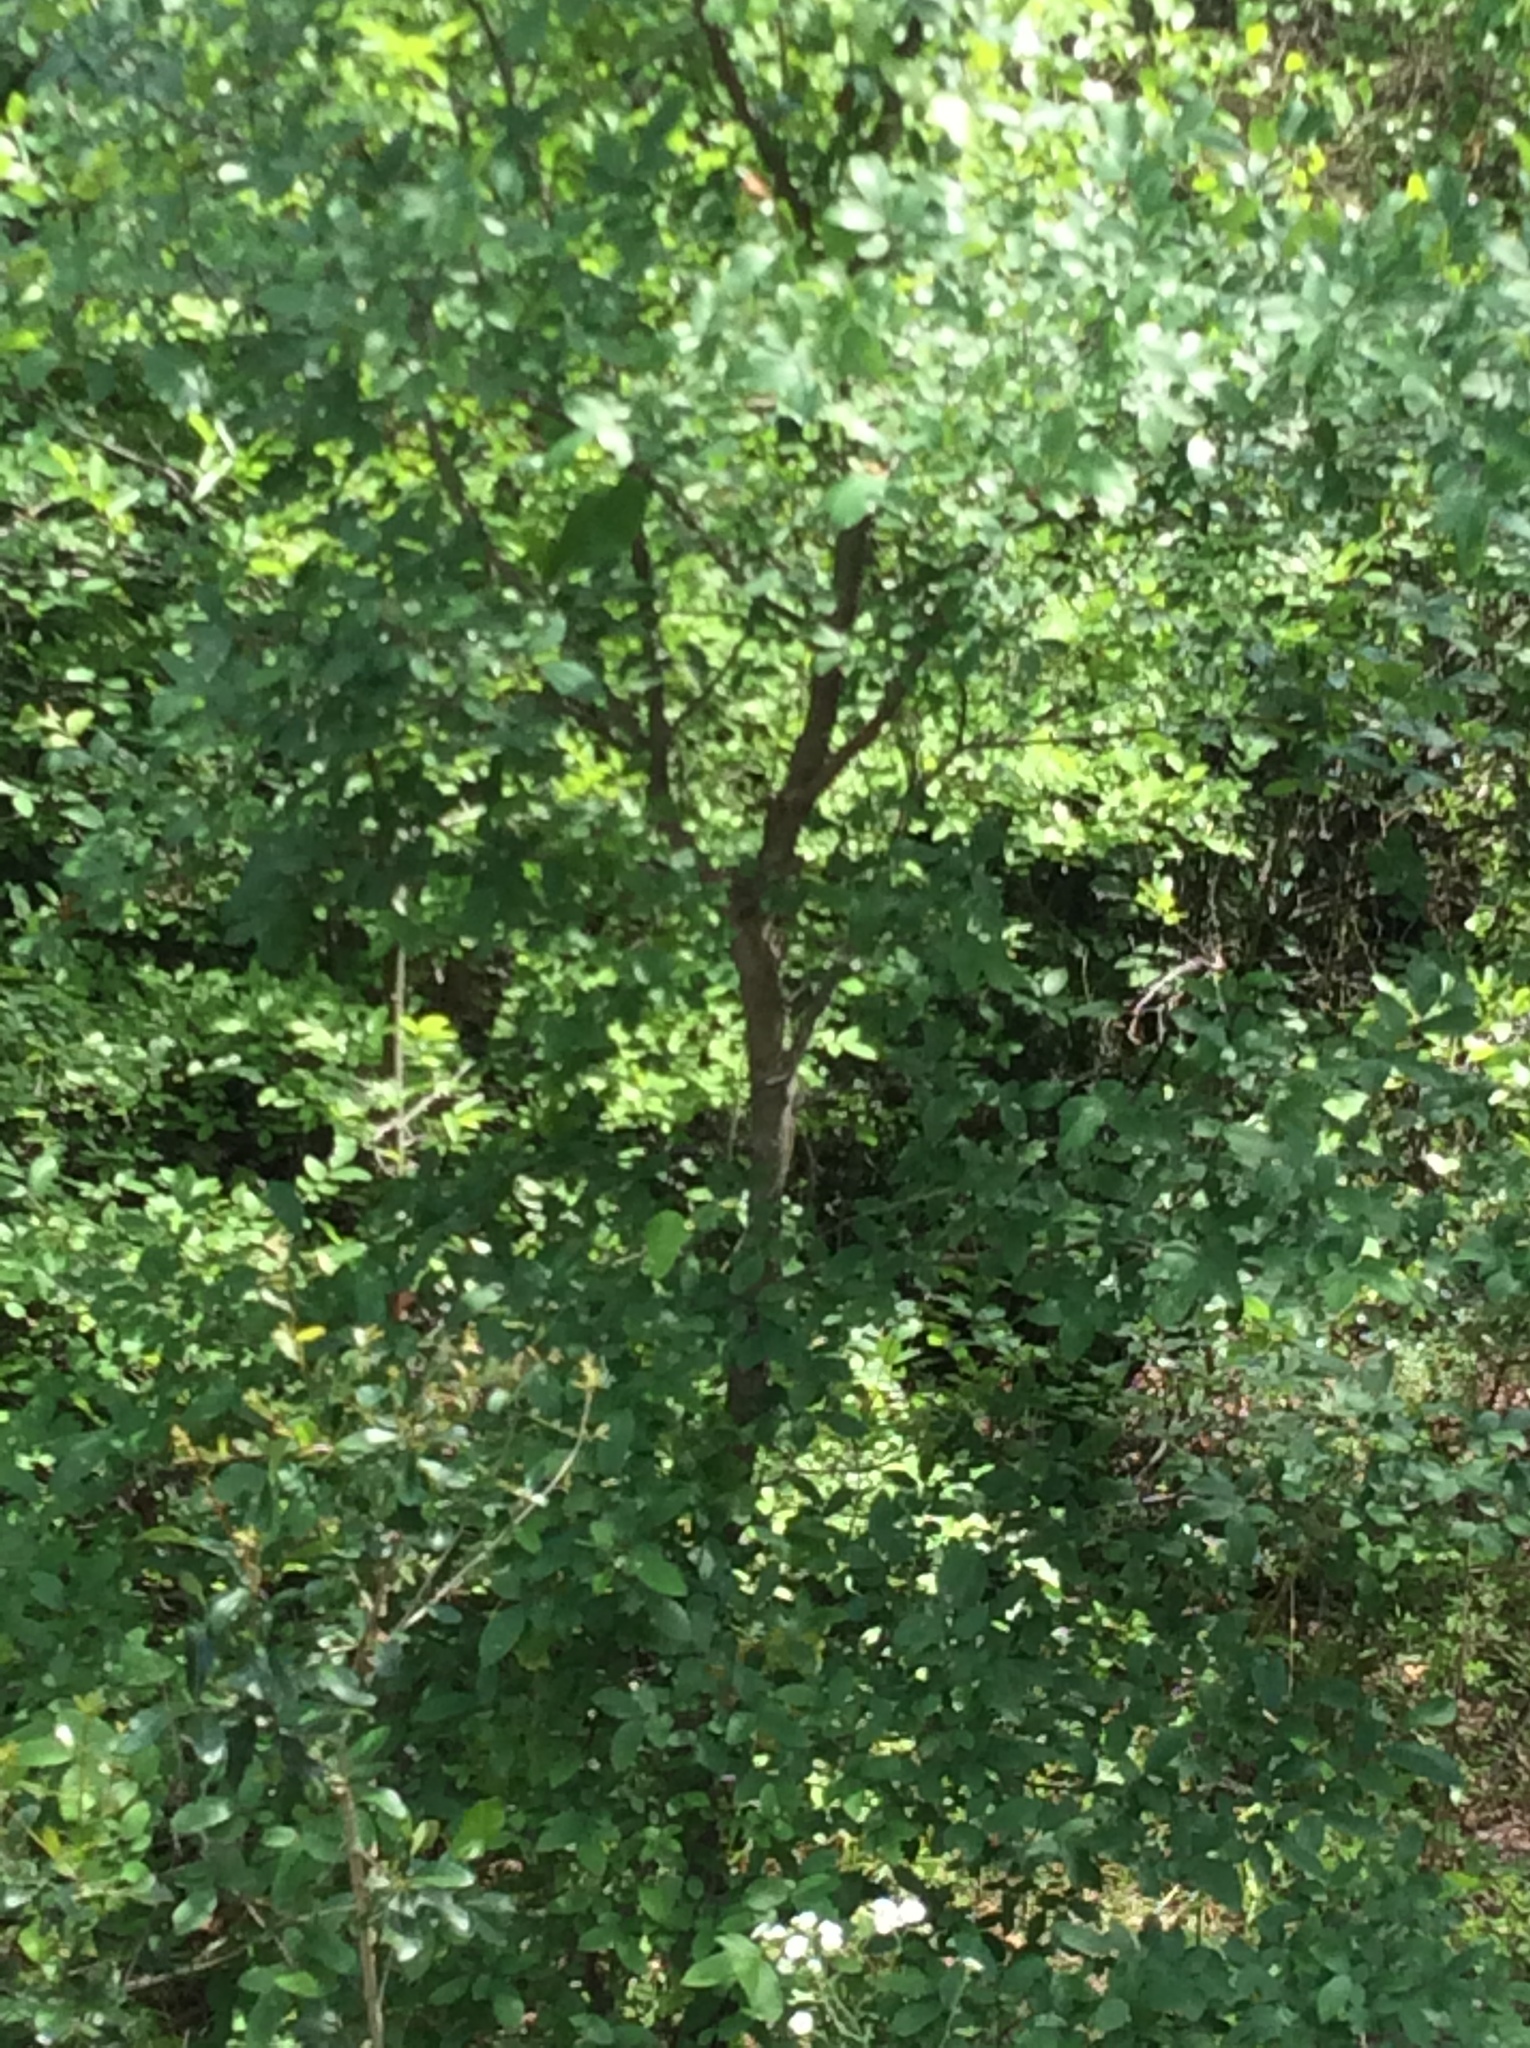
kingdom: Plantae
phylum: Tracheophyta
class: Magnoliopsida
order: Rosales
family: Ulmaceae
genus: Ulmus
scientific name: Ulmus crassifolia
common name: Basket elm
